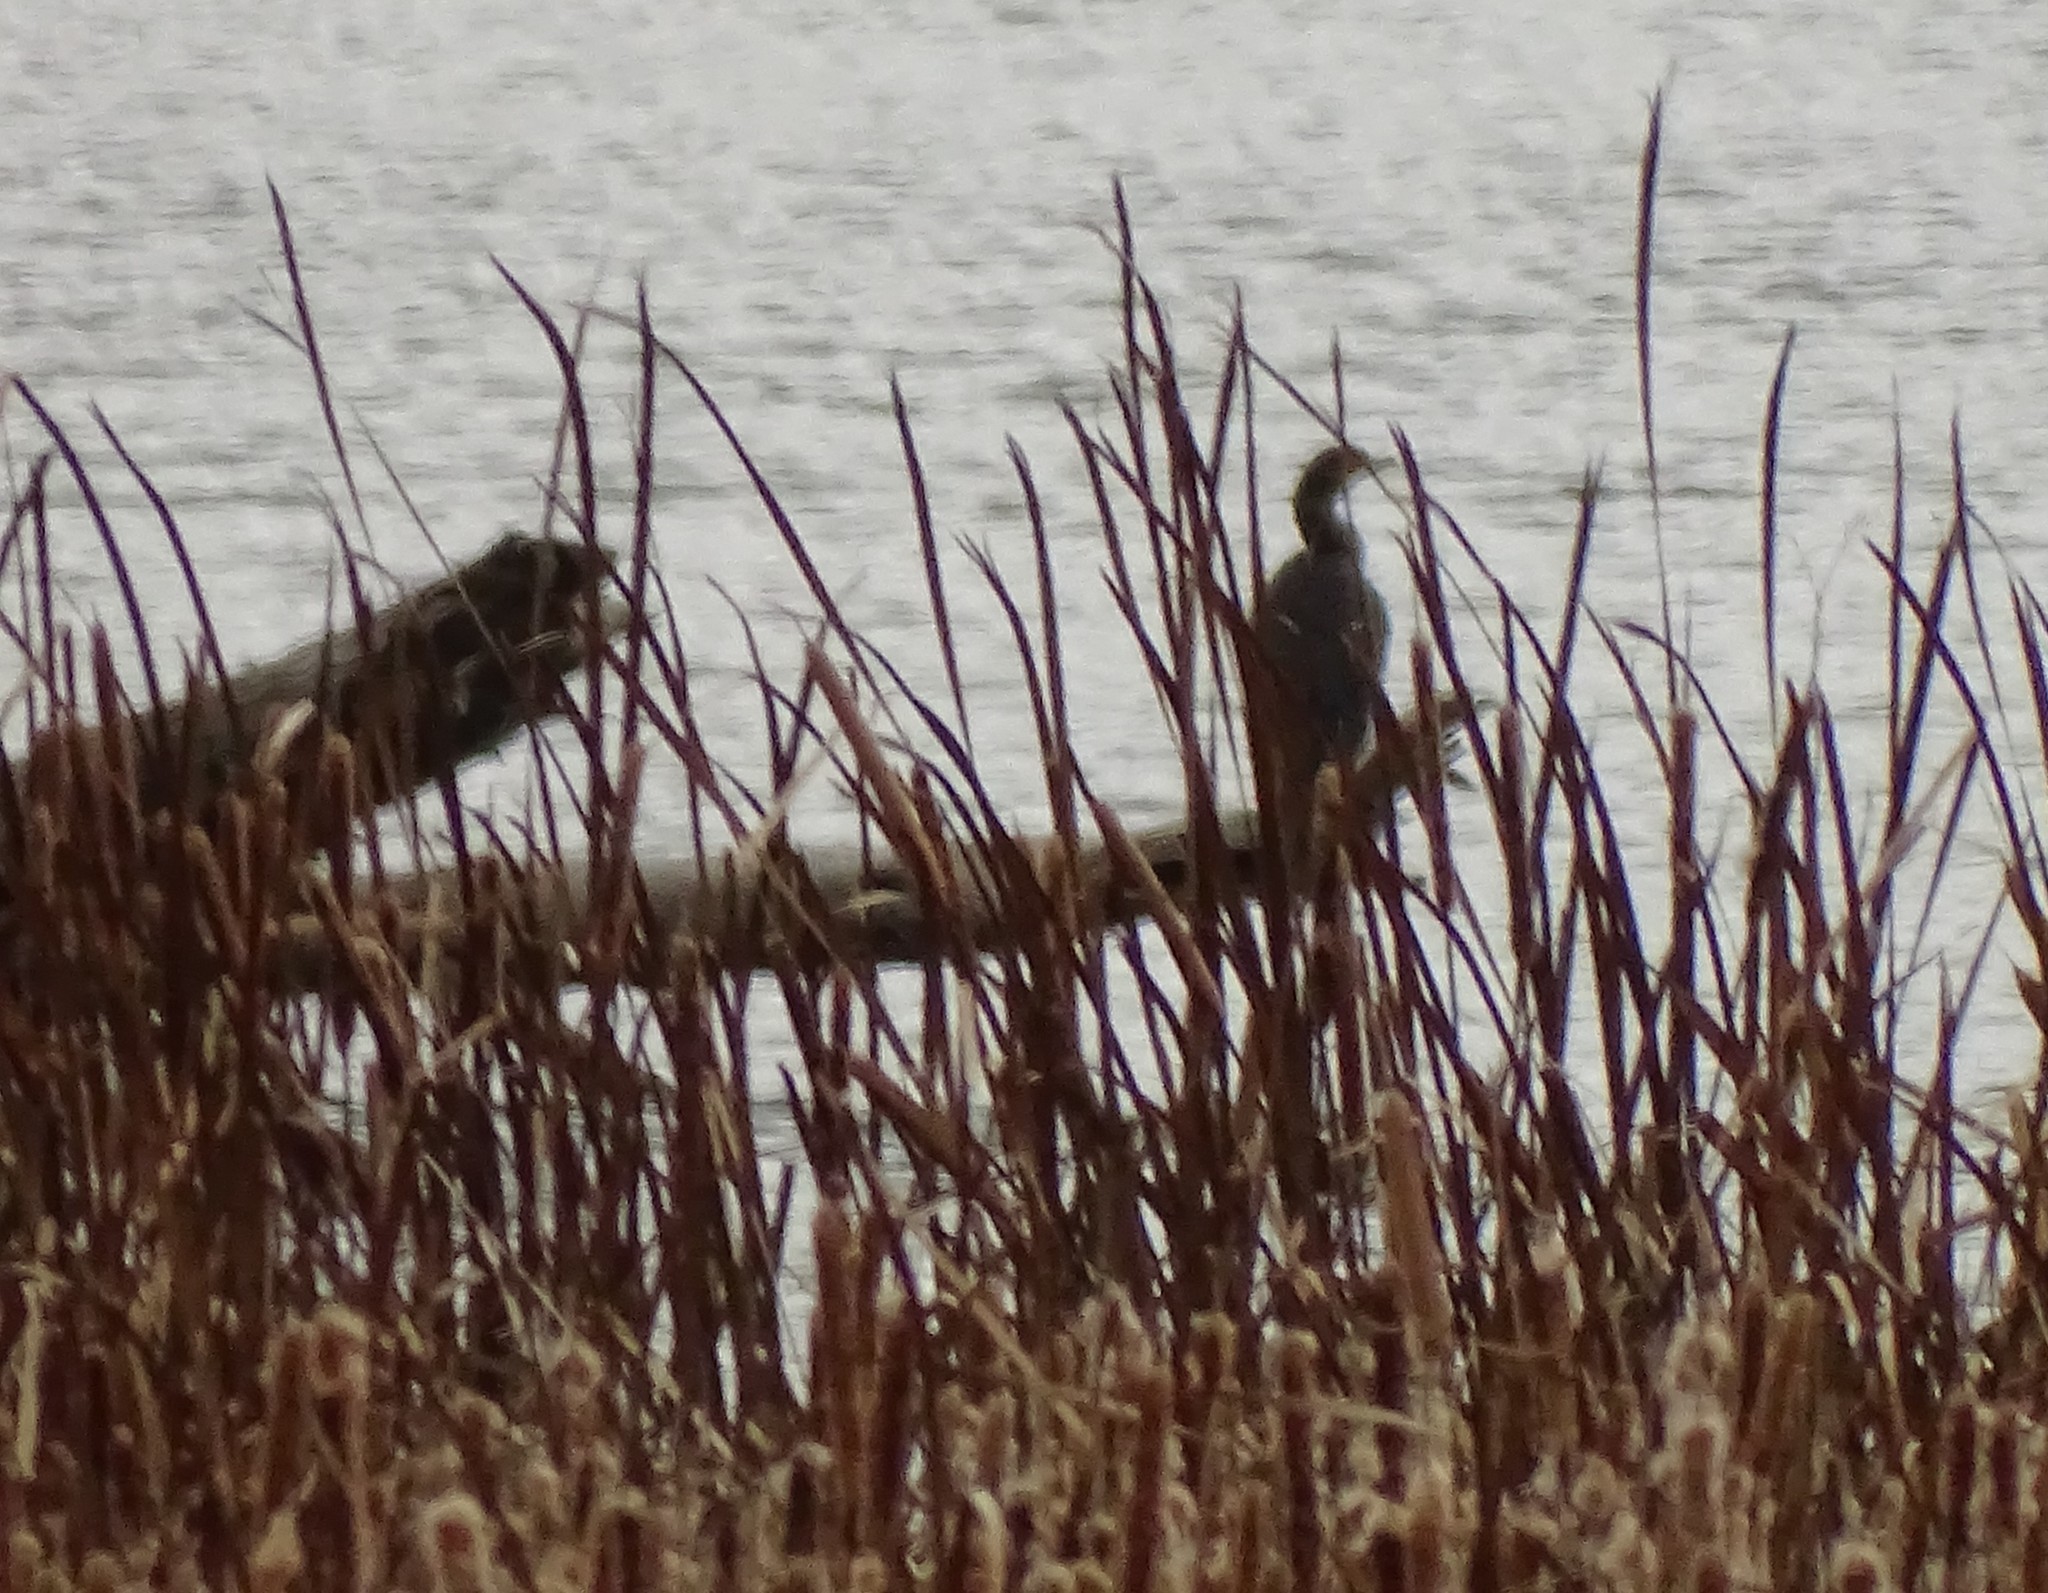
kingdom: Animalia
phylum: Chordata
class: Aves
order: Suliformes
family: Phalacrocoracidae
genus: Phalacrocorax
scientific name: Phalacrocorax auritus
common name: Double-crested cormorant
